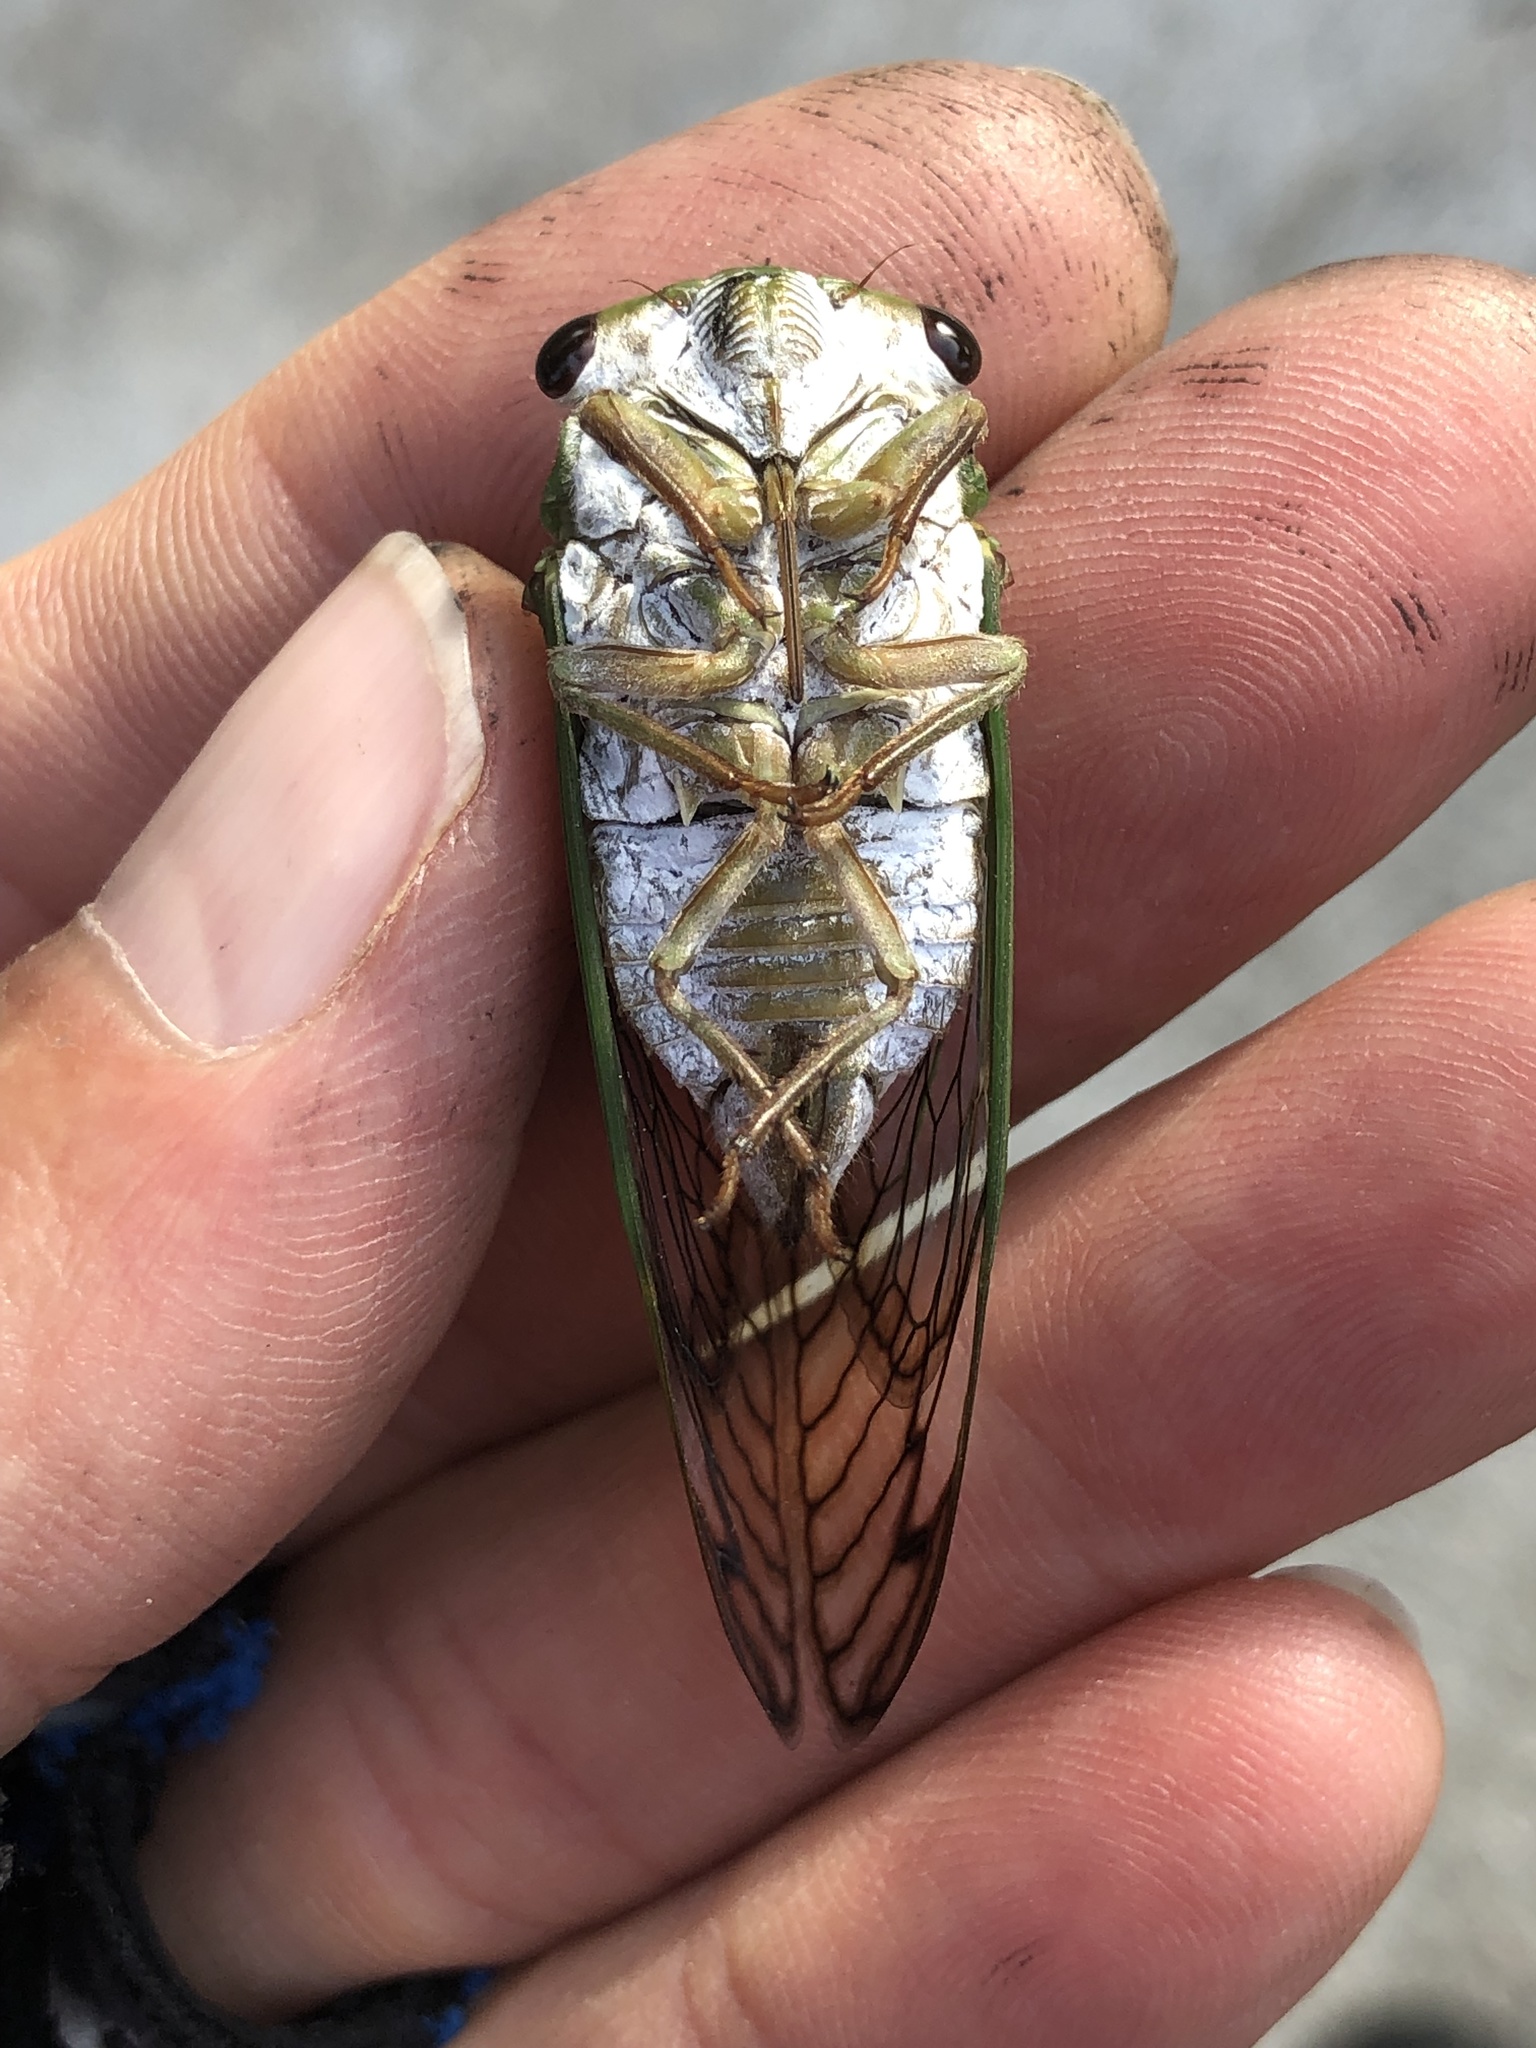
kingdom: Animalia
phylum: Arthropoda
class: Insecta
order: Hemiptera
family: Cicadidae
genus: Neotibicen
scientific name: Neotibicen superbus
